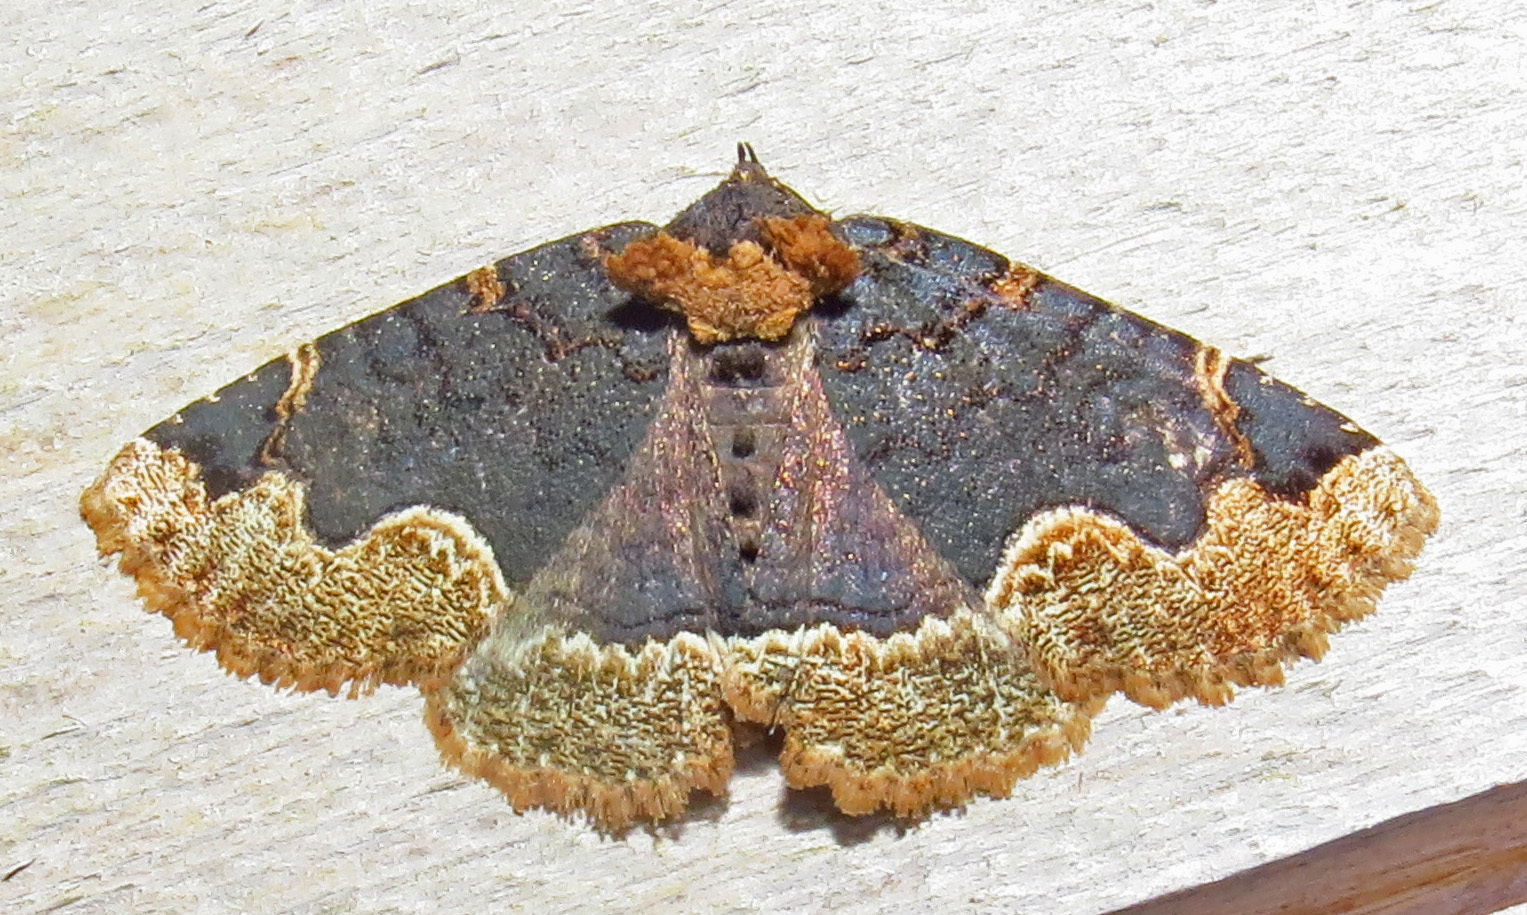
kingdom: Animalia
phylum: Arthropoda
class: Insecta
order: Lepidoptera
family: Erebidae
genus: Zale
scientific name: Zale horrida
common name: Horrid zale moth
